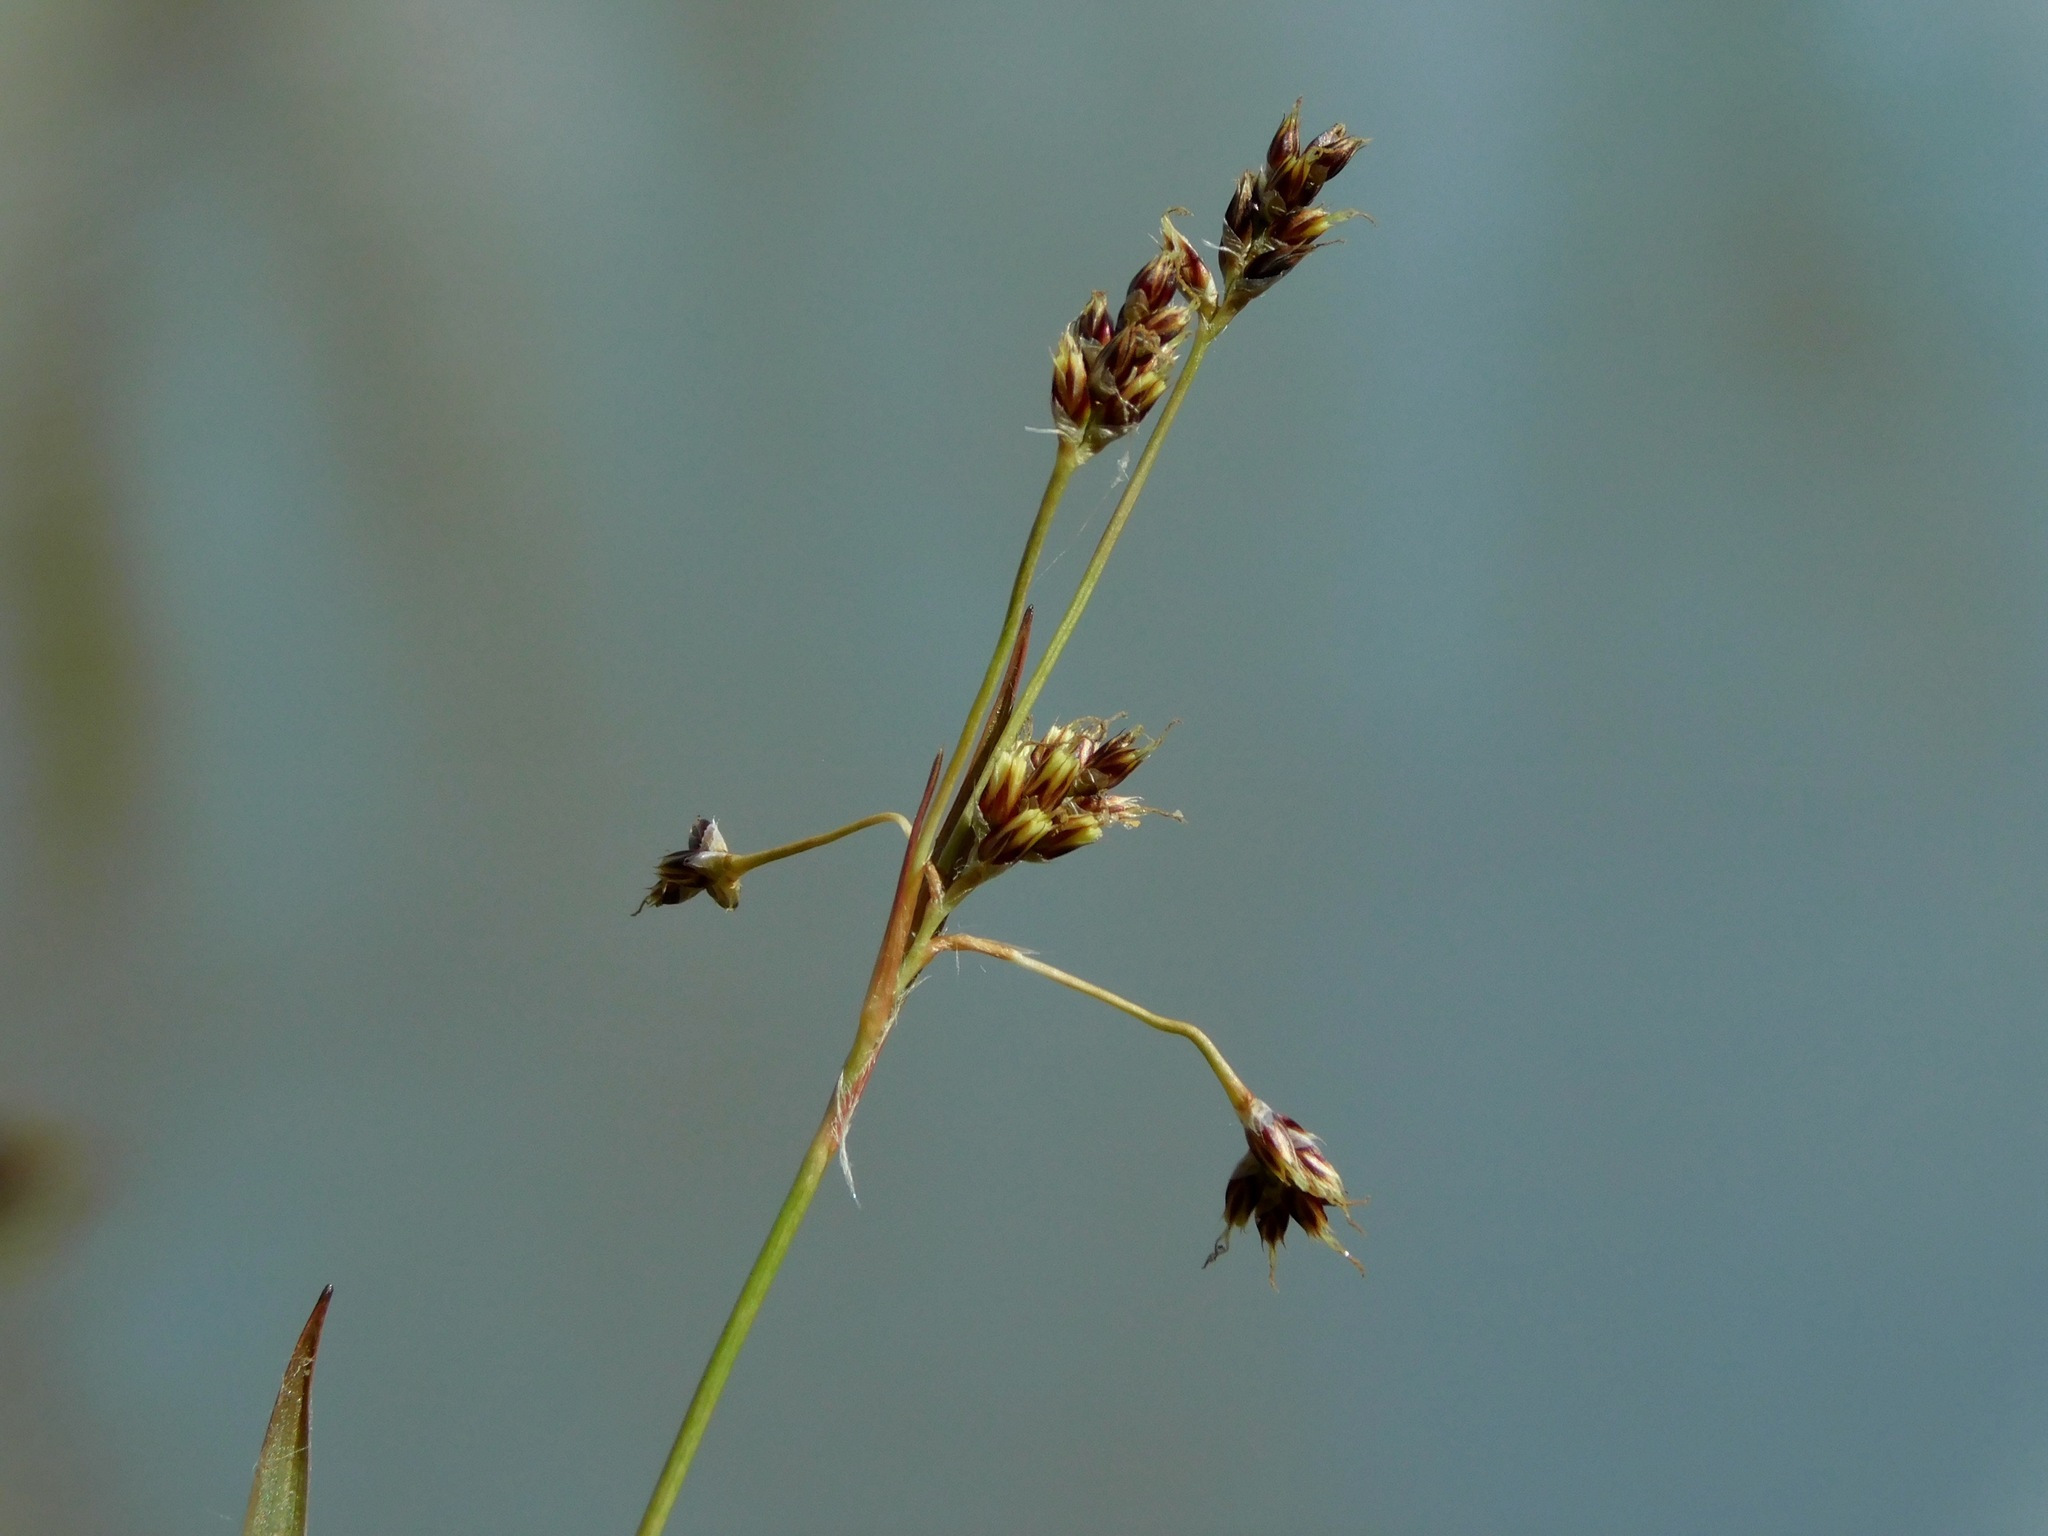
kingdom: Plantae
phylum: Tracheophyta
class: Liliopsida
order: Poales
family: Juncaceae
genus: Luzula
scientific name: Luzula echinata
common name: Hedgehog woodrush
